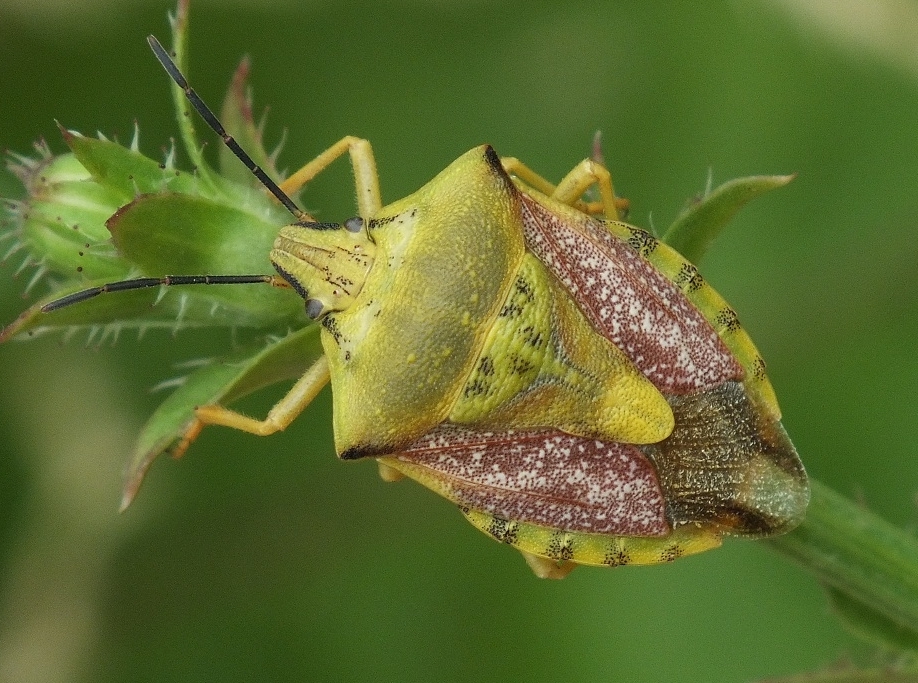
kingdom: Animalia
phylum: Arthropoda
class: Insecta
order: Hemiptera
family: Pentatomidae
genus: Carpocoris
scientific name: Carpocoris coreanus
